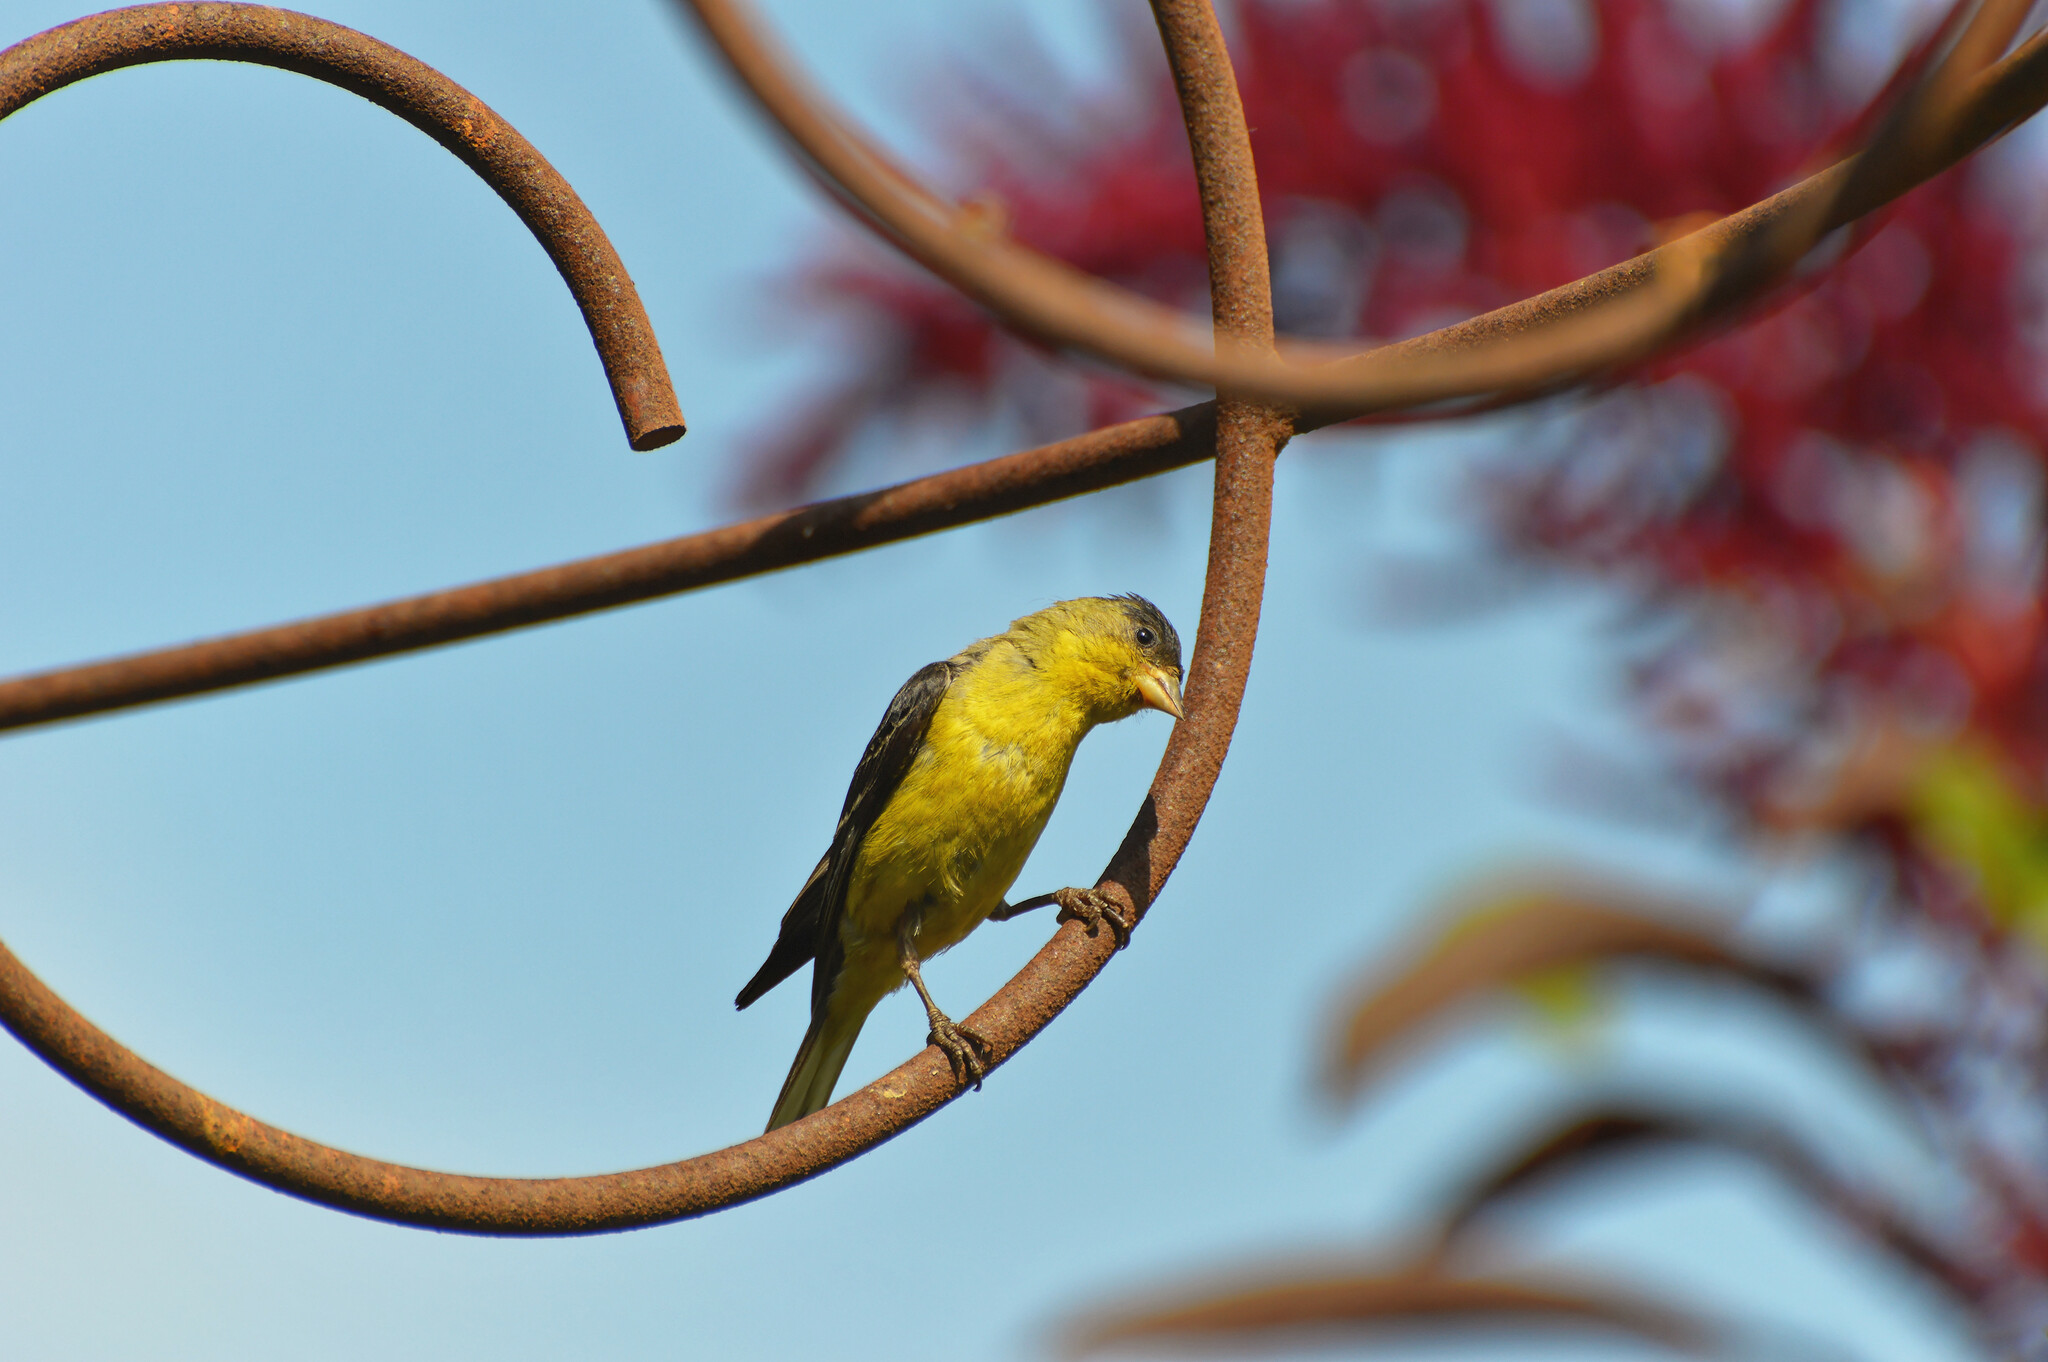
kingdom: Animalia
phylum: Chordata
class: Aves
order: Passeriformes
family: Fringillidae
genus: Spinus
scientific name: Spinus psaltria
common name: Lesser goldfinch
